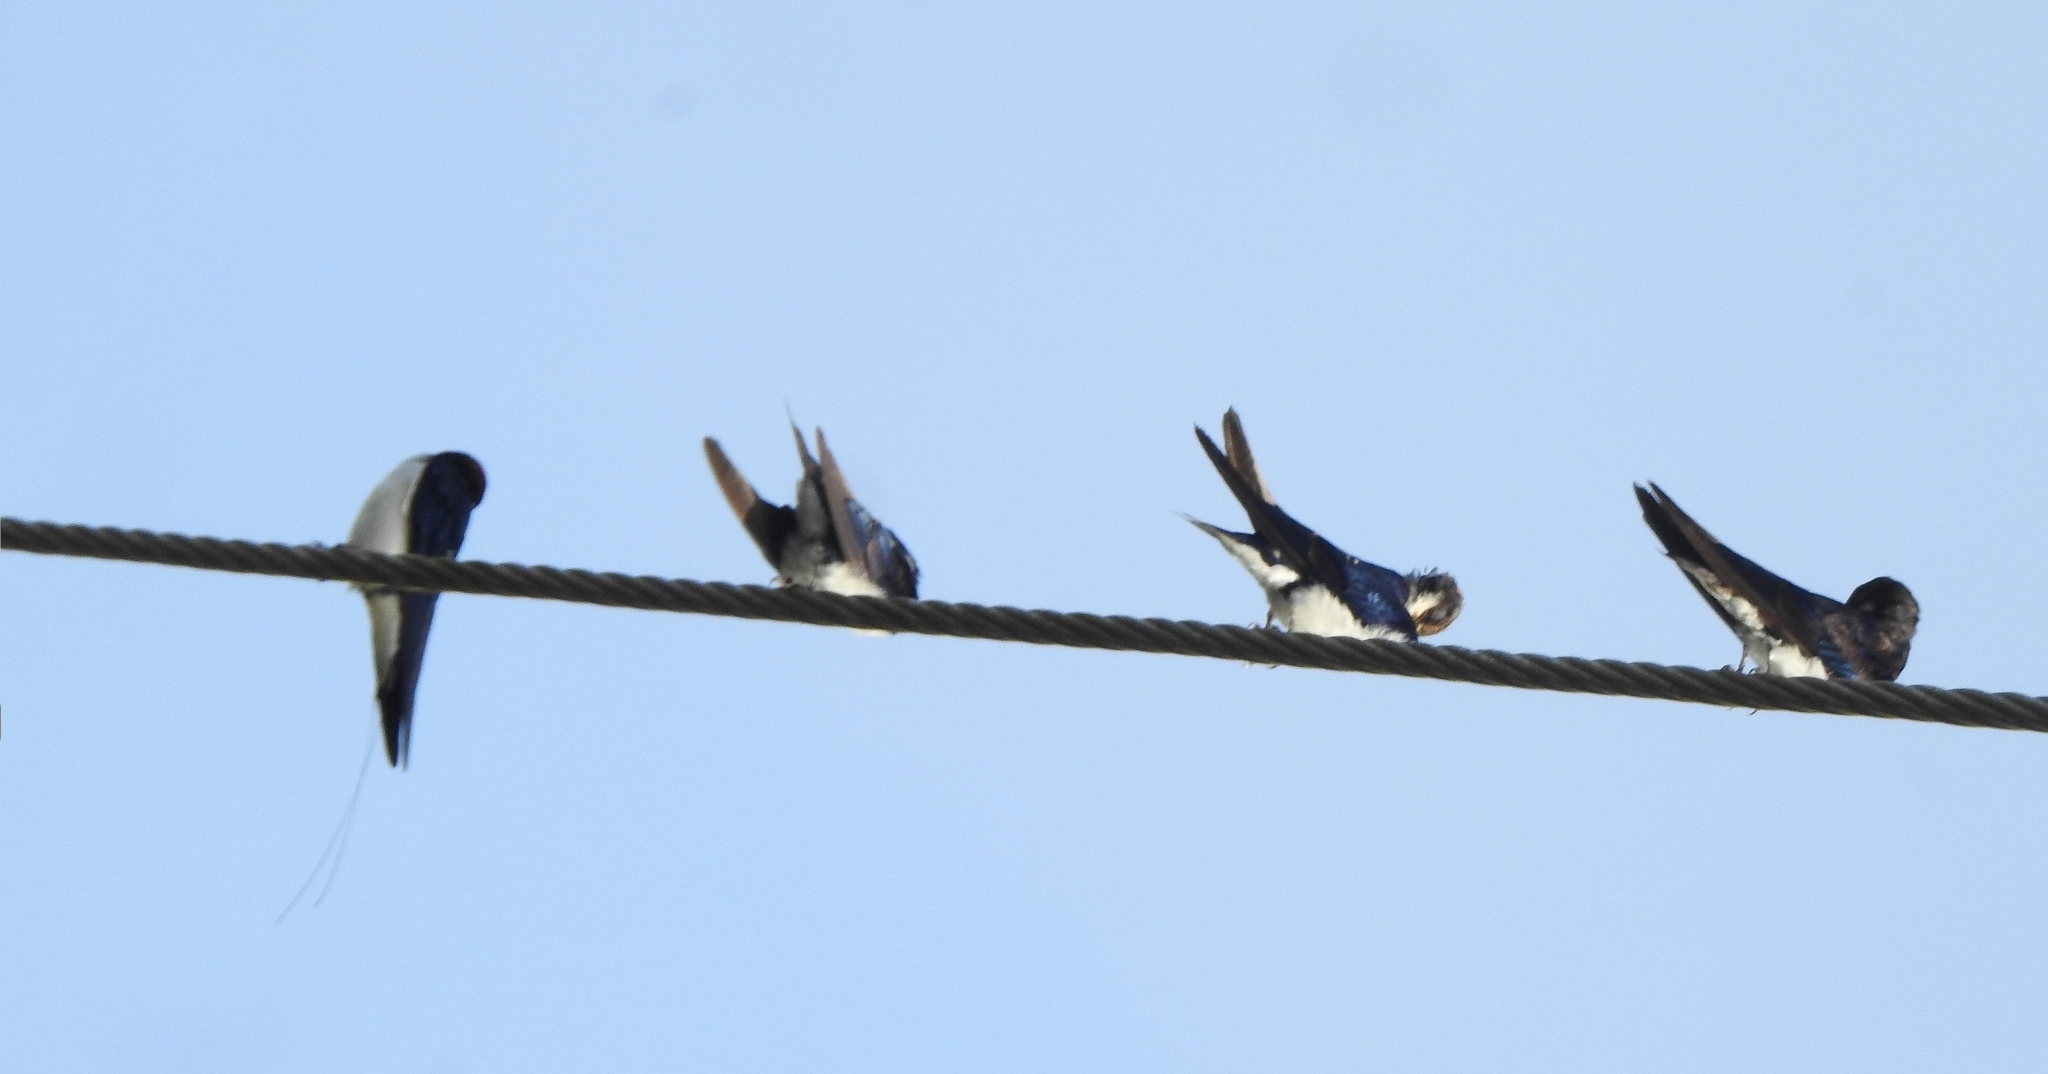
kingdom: Animalia
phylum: Chordata
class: Aves
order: Passeriformes
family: Hirundinidae
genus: Hirundo
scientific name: Hirundo smithii
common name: Wire-tailed swallow
